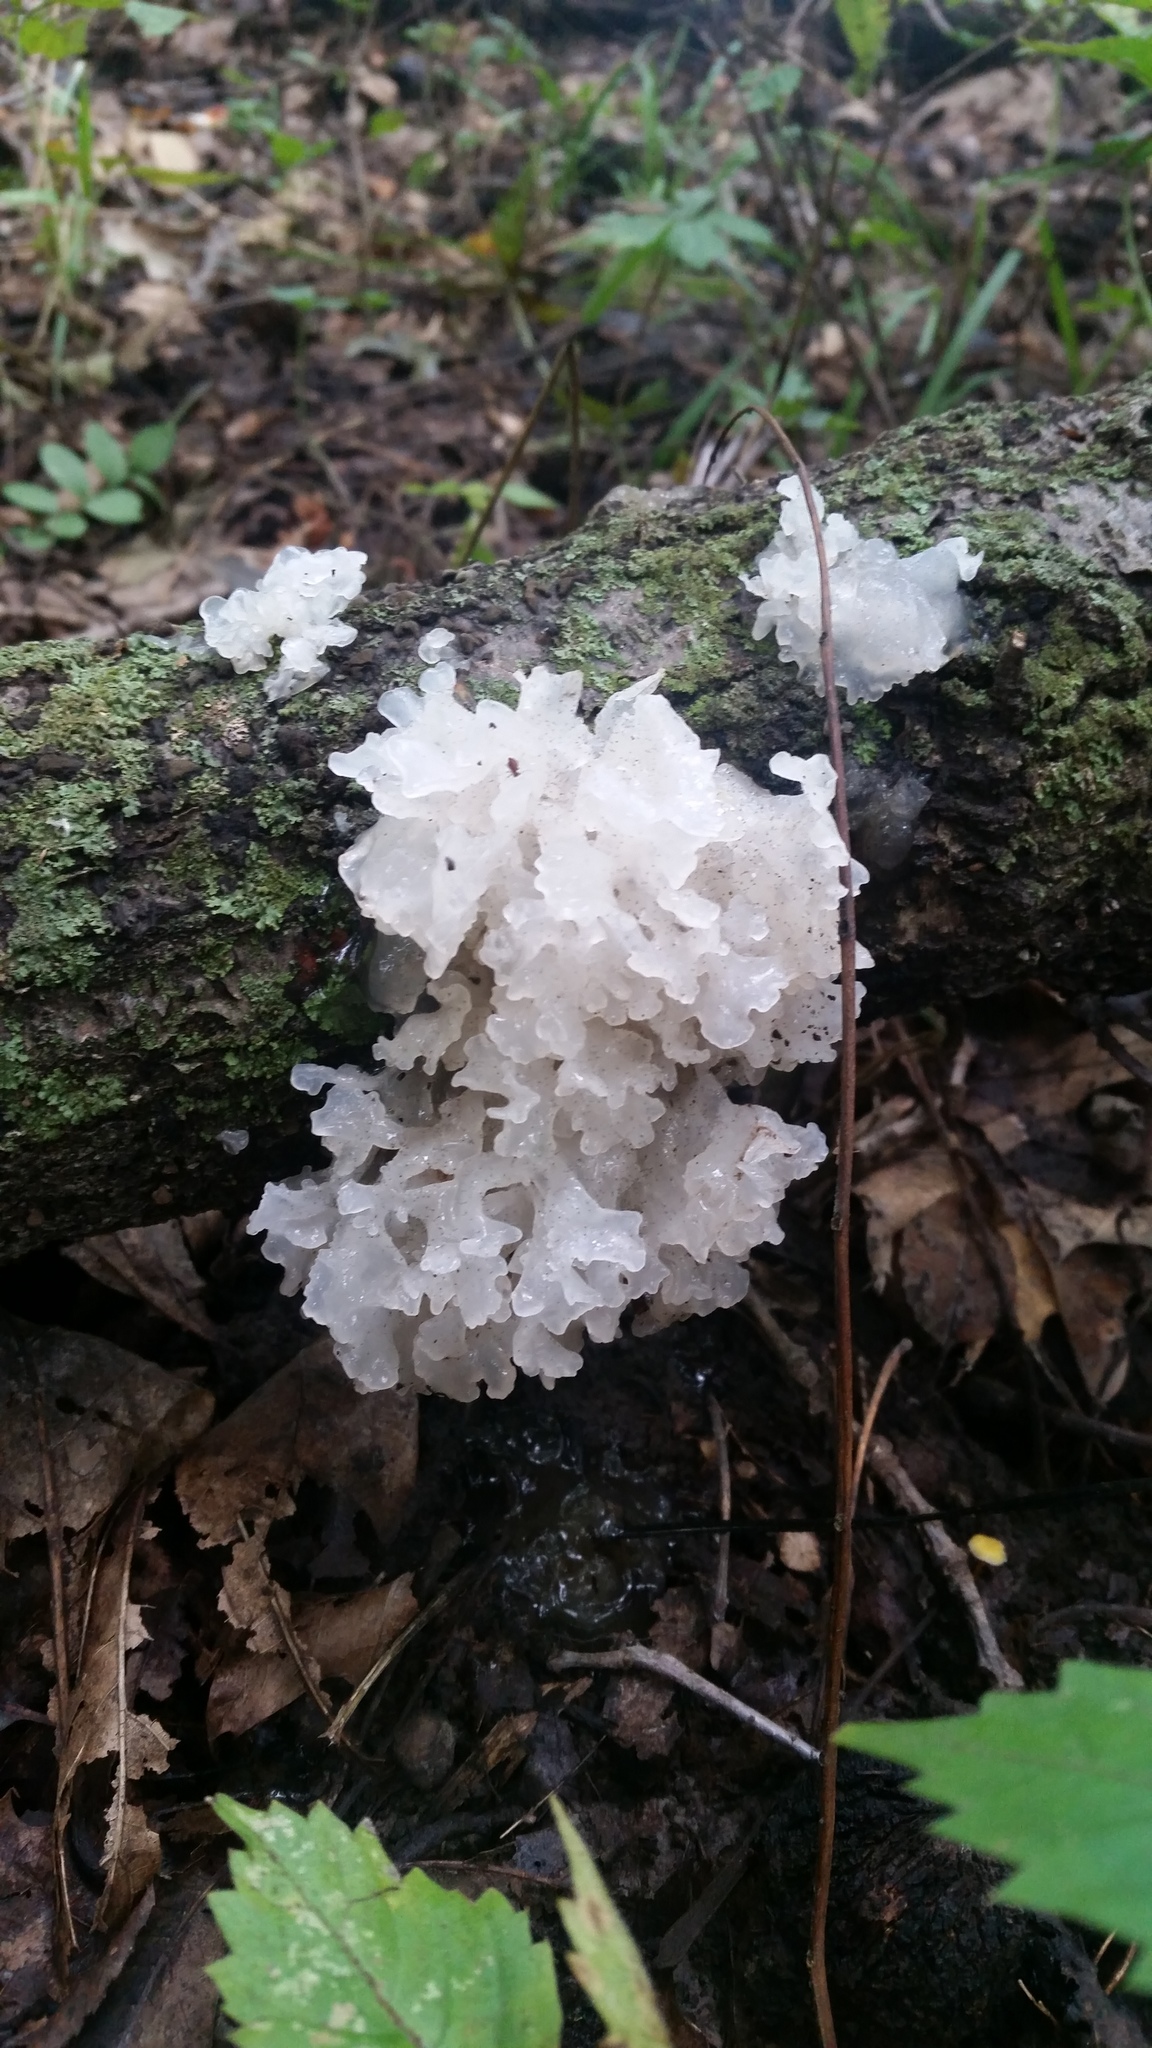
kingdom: Fungi
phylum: Basidiomycota
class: Tremellomycetes
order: Tremellales
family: Tremellaceae
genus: Tremella
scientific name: Tremella fuciformis
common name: Snow fungus
